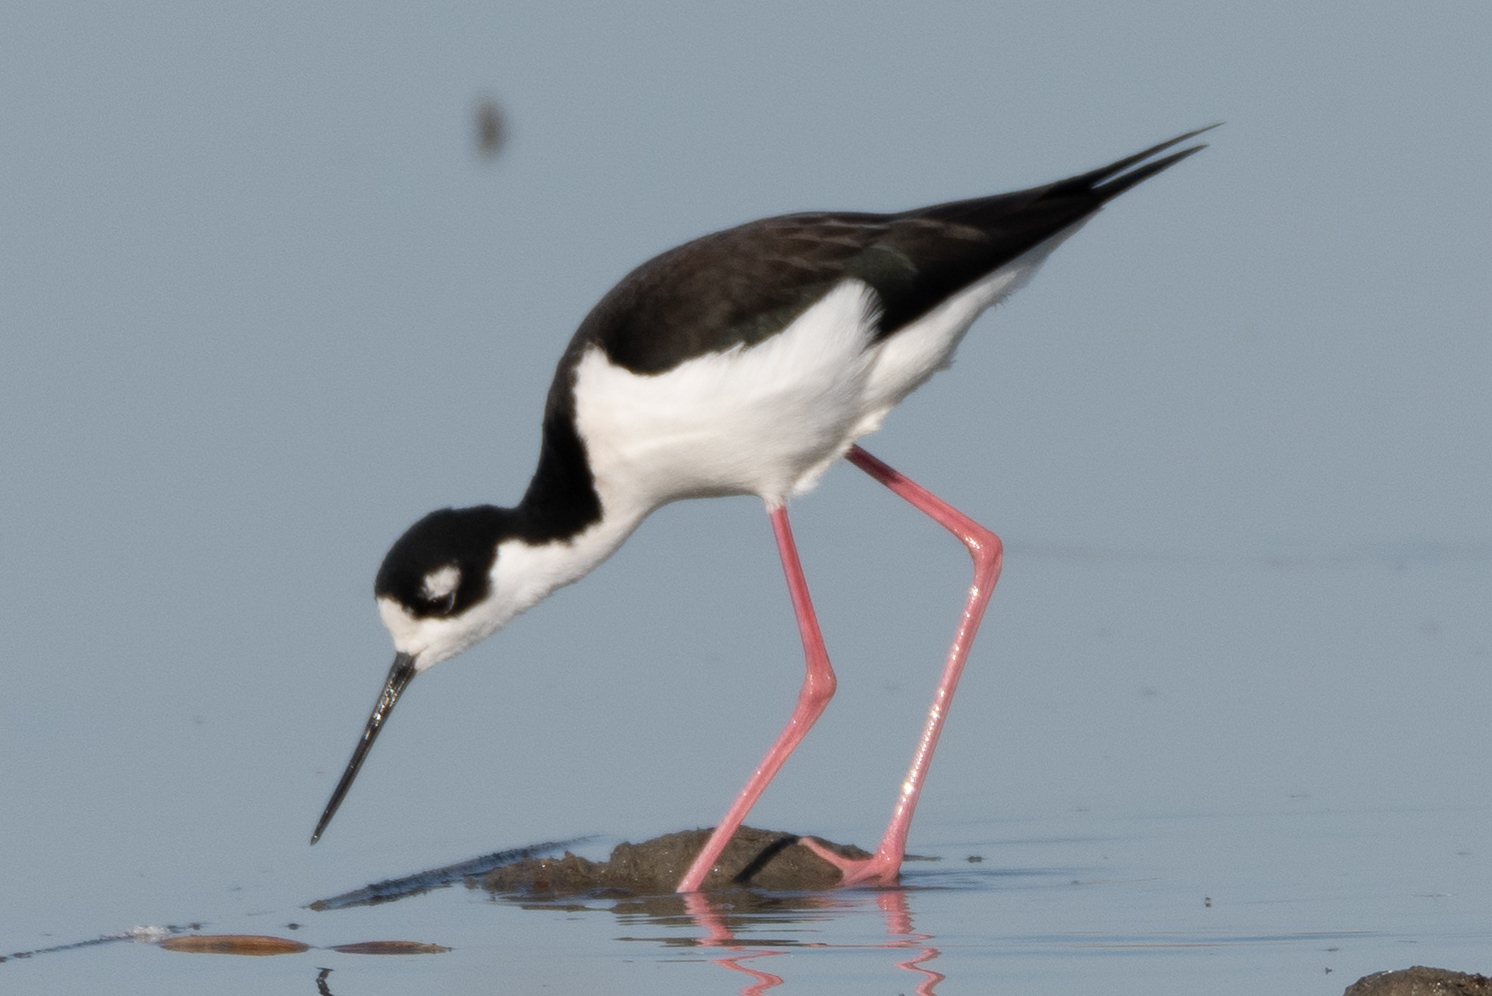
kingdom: Animalia
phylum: Chordata
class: Aves
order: Charadriiformes
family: Recurvirostridae
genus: Himantopus
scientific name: Himantopus mexicanus
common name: Black-necked stilt
